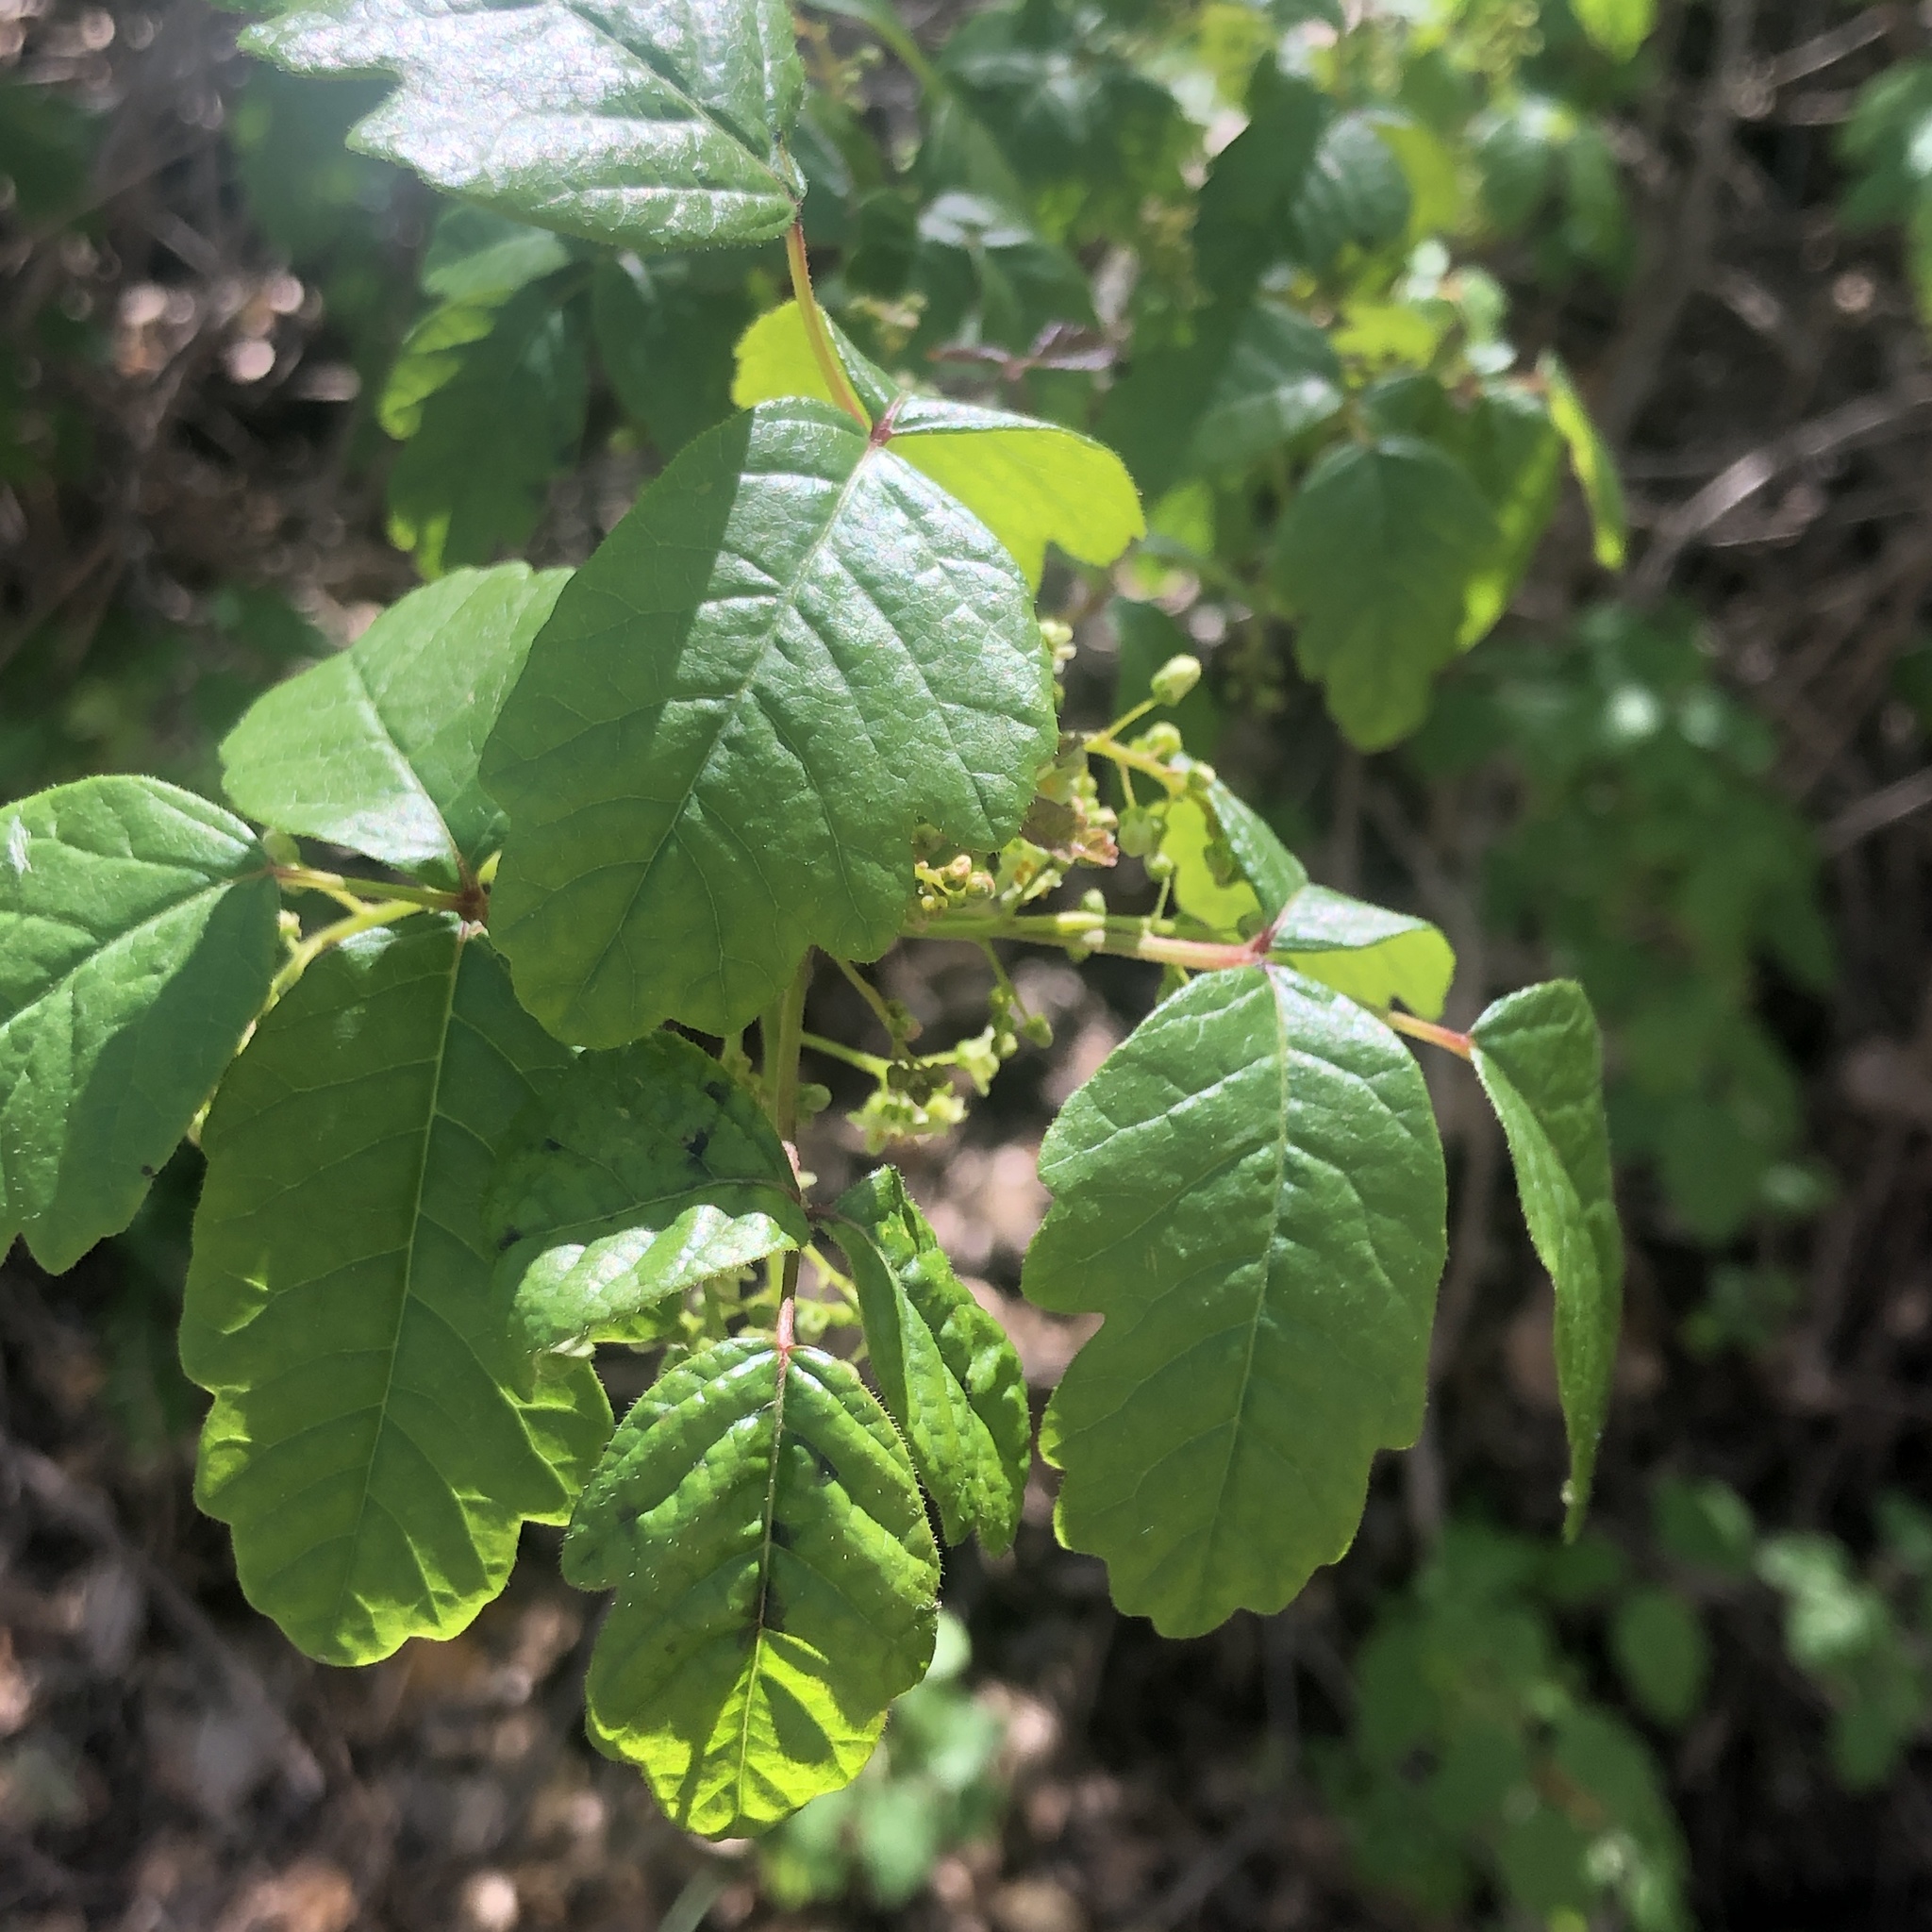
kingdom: Plantae
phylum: Tracheophyta
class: Magnoliopsida
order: Sapindales
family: Anacardiaceae
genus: Toxicodendron
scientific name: Toxicodendron diversilobum
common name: Pacific poison-oak
